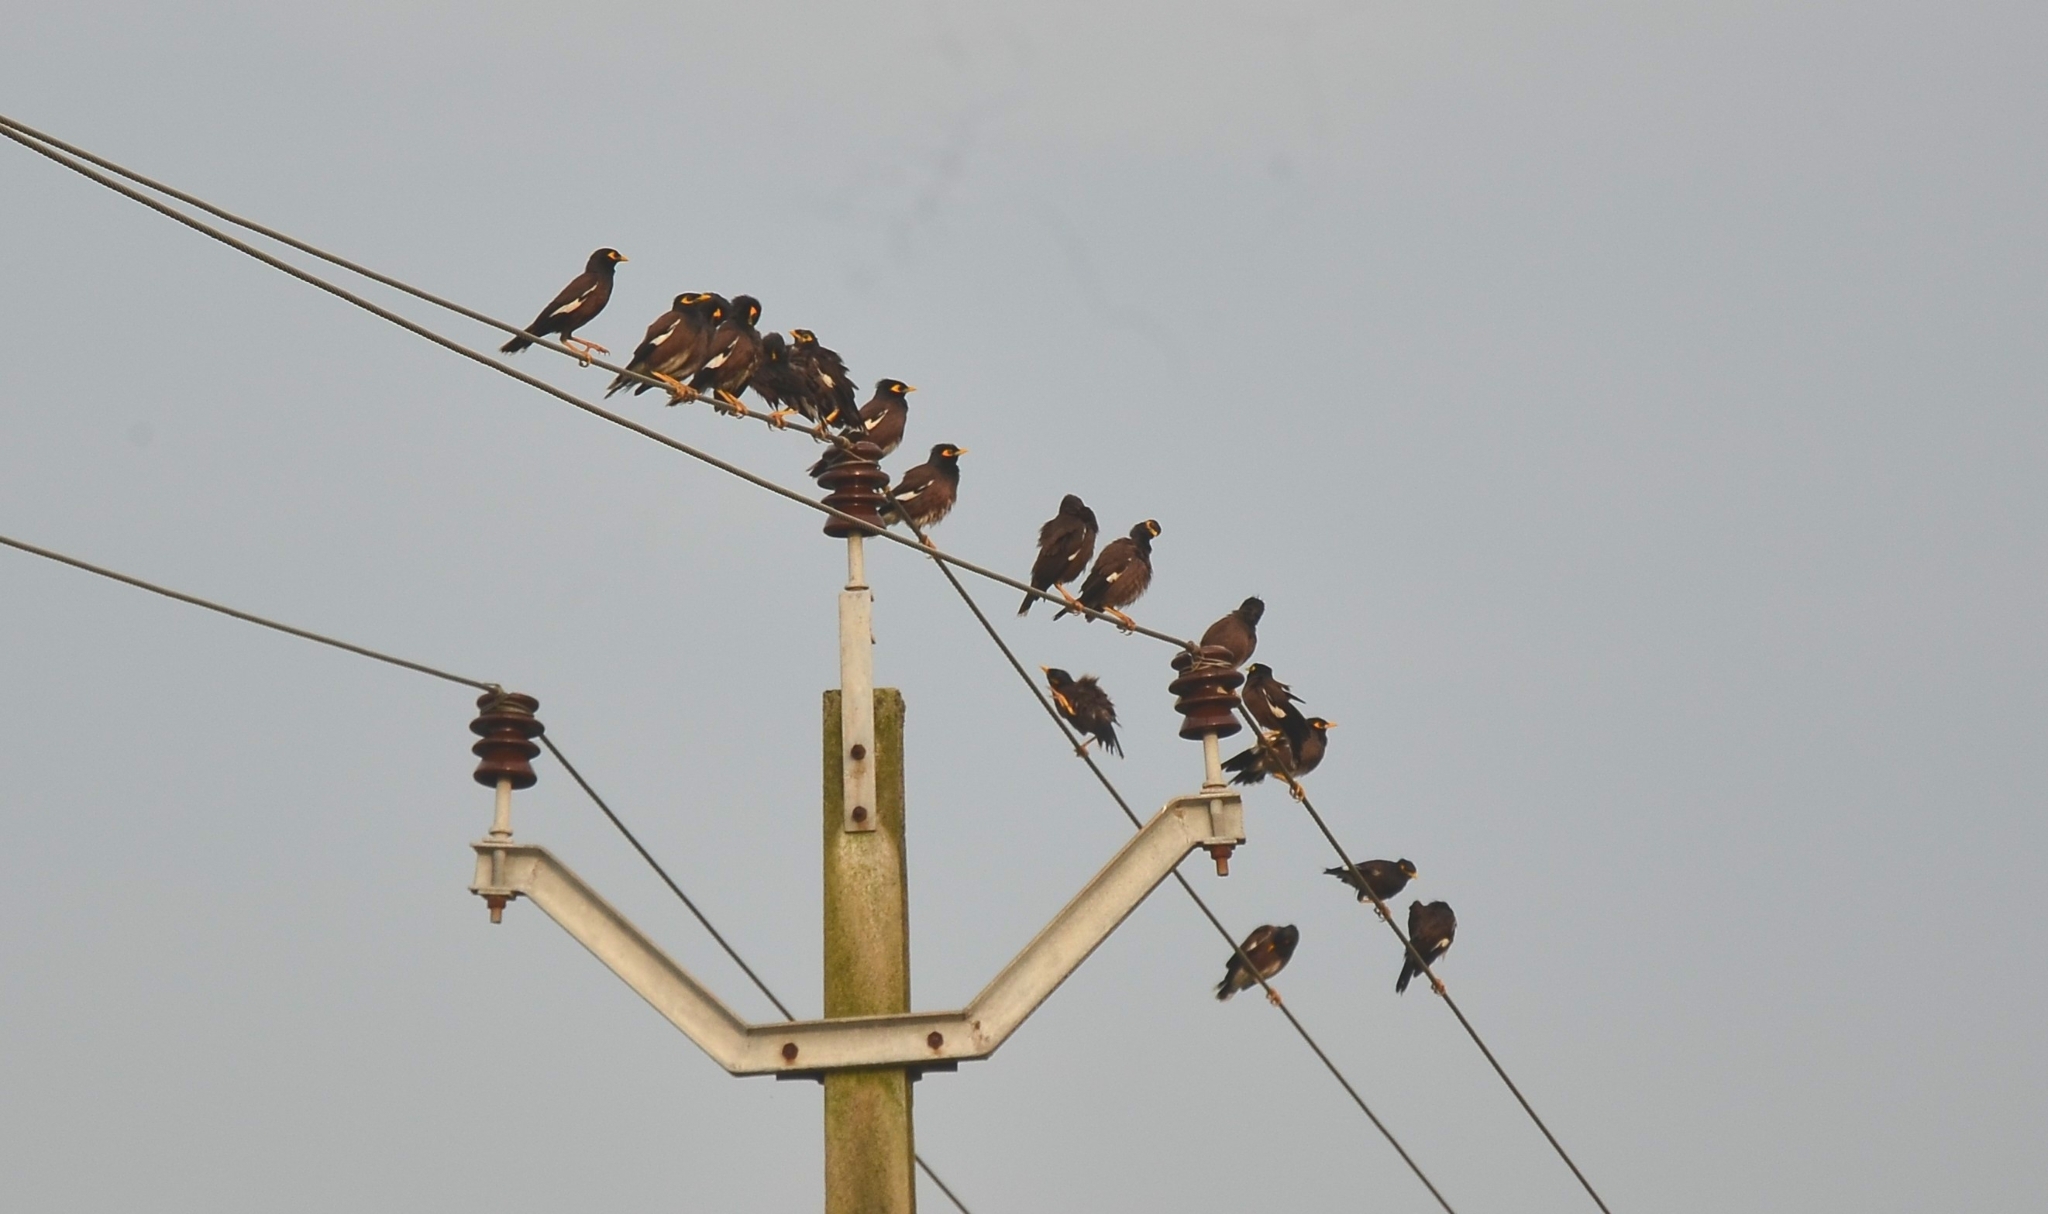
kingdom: Animalia
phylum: Chordata
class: Aves
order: Passeriformes
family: Sturnidae
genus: Acridotheres
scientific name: Acridotheres tristis
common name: Common myna
